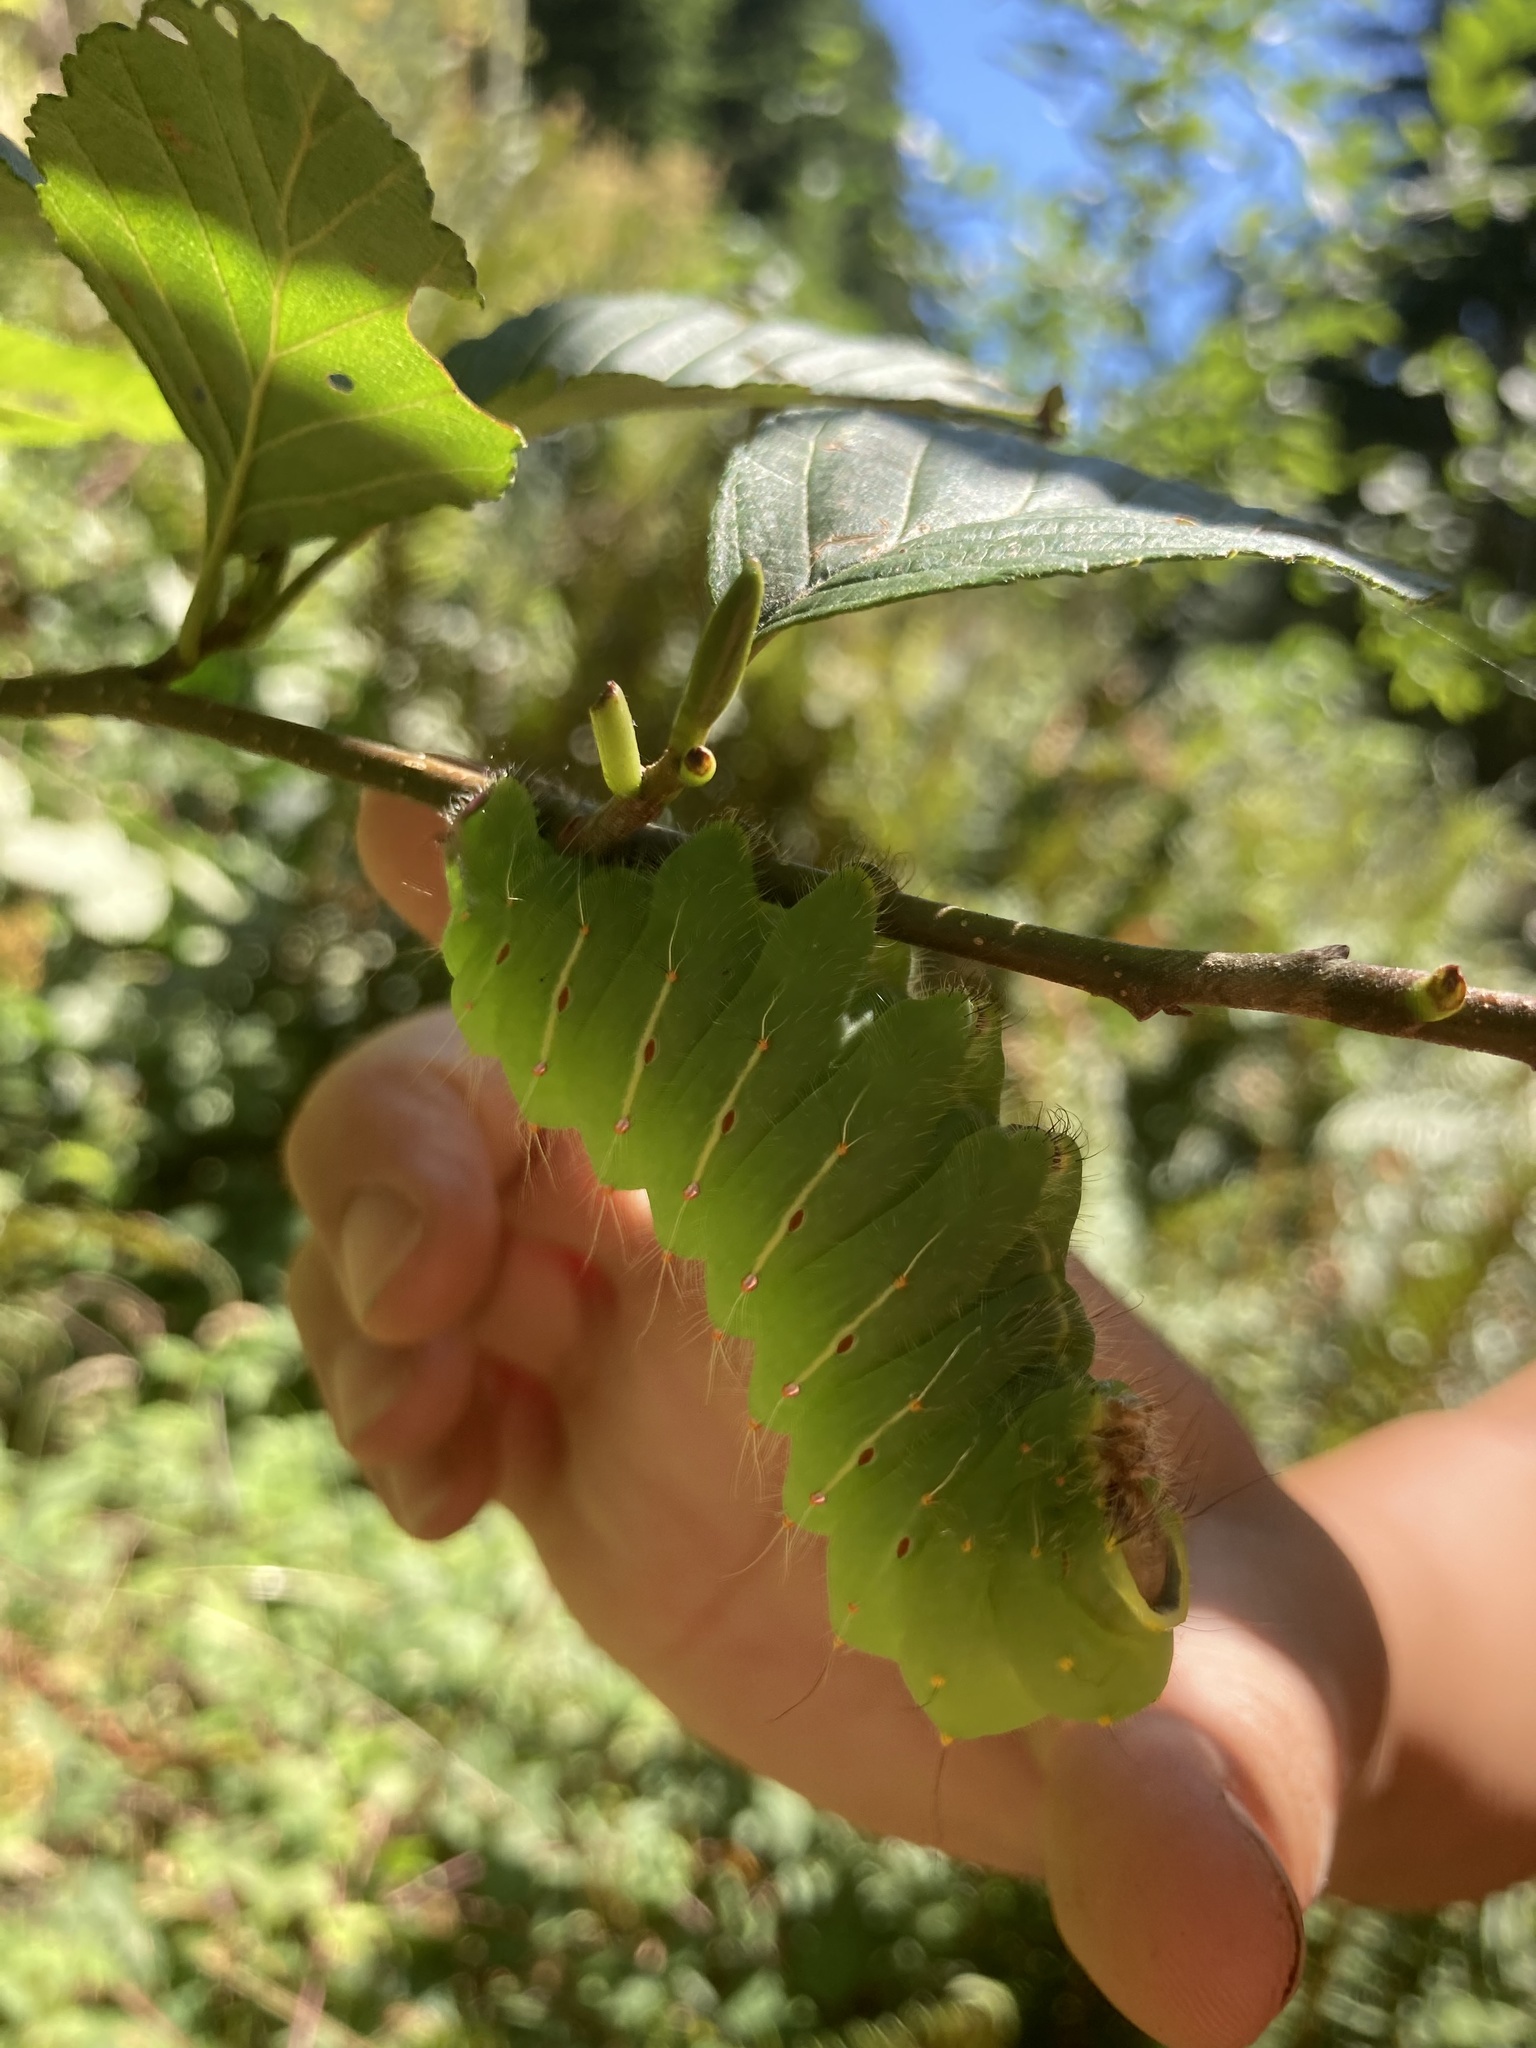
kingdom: Animalia
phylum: Arthropoda
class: Insecta
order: Lepidoptera
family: Saturniidae
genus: Antheraea
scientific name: Antheraea polyphemus
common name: Polyphemus moth
